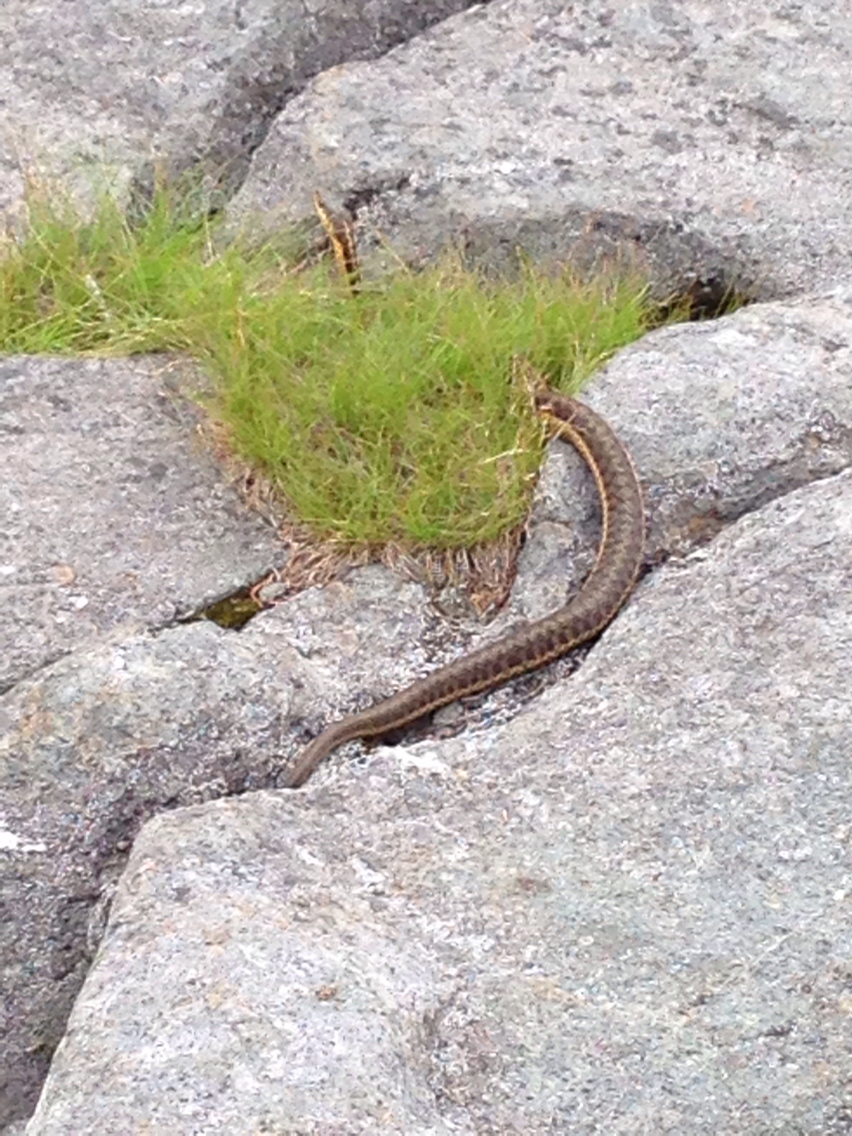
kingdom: Animalia
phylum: Chordata
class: Squamata
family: Colubridae
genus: Thamnophis
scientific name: Thamnophis sirtalis
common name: Common garter snake
